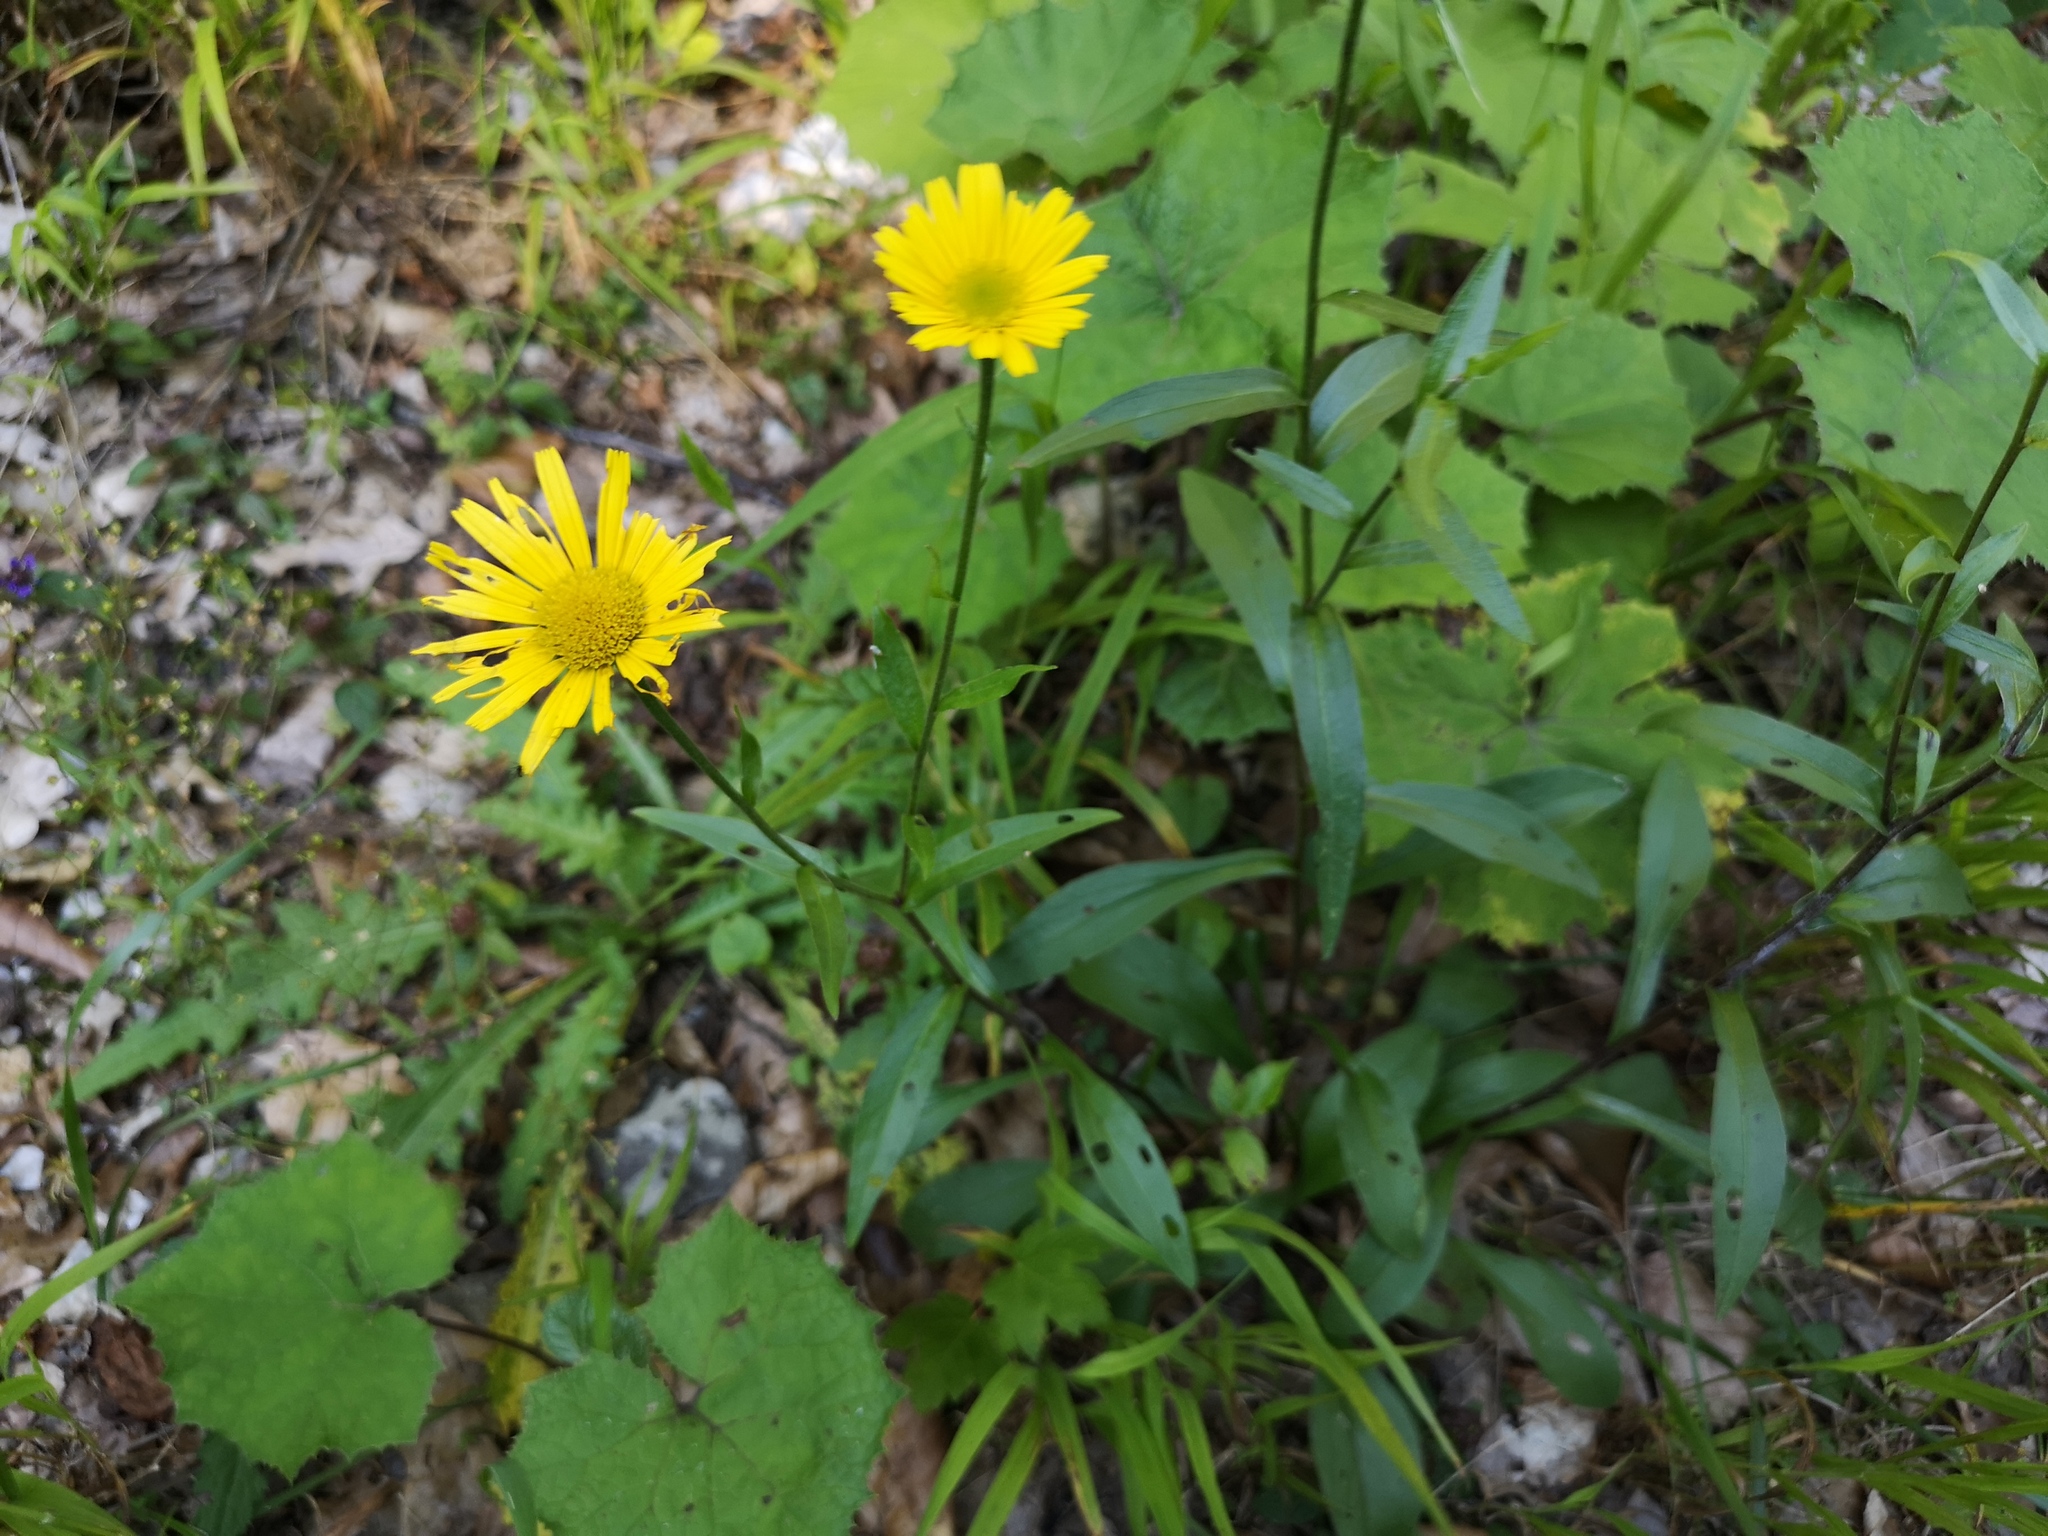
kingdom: Plantae
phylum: Tracheophyta
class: Magnoliopsida
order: Asterales
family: Asteraceae
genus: Buphthalmum
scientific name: Buphthalmum salicifolium
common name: Willow-leaved yellow-oxeye
